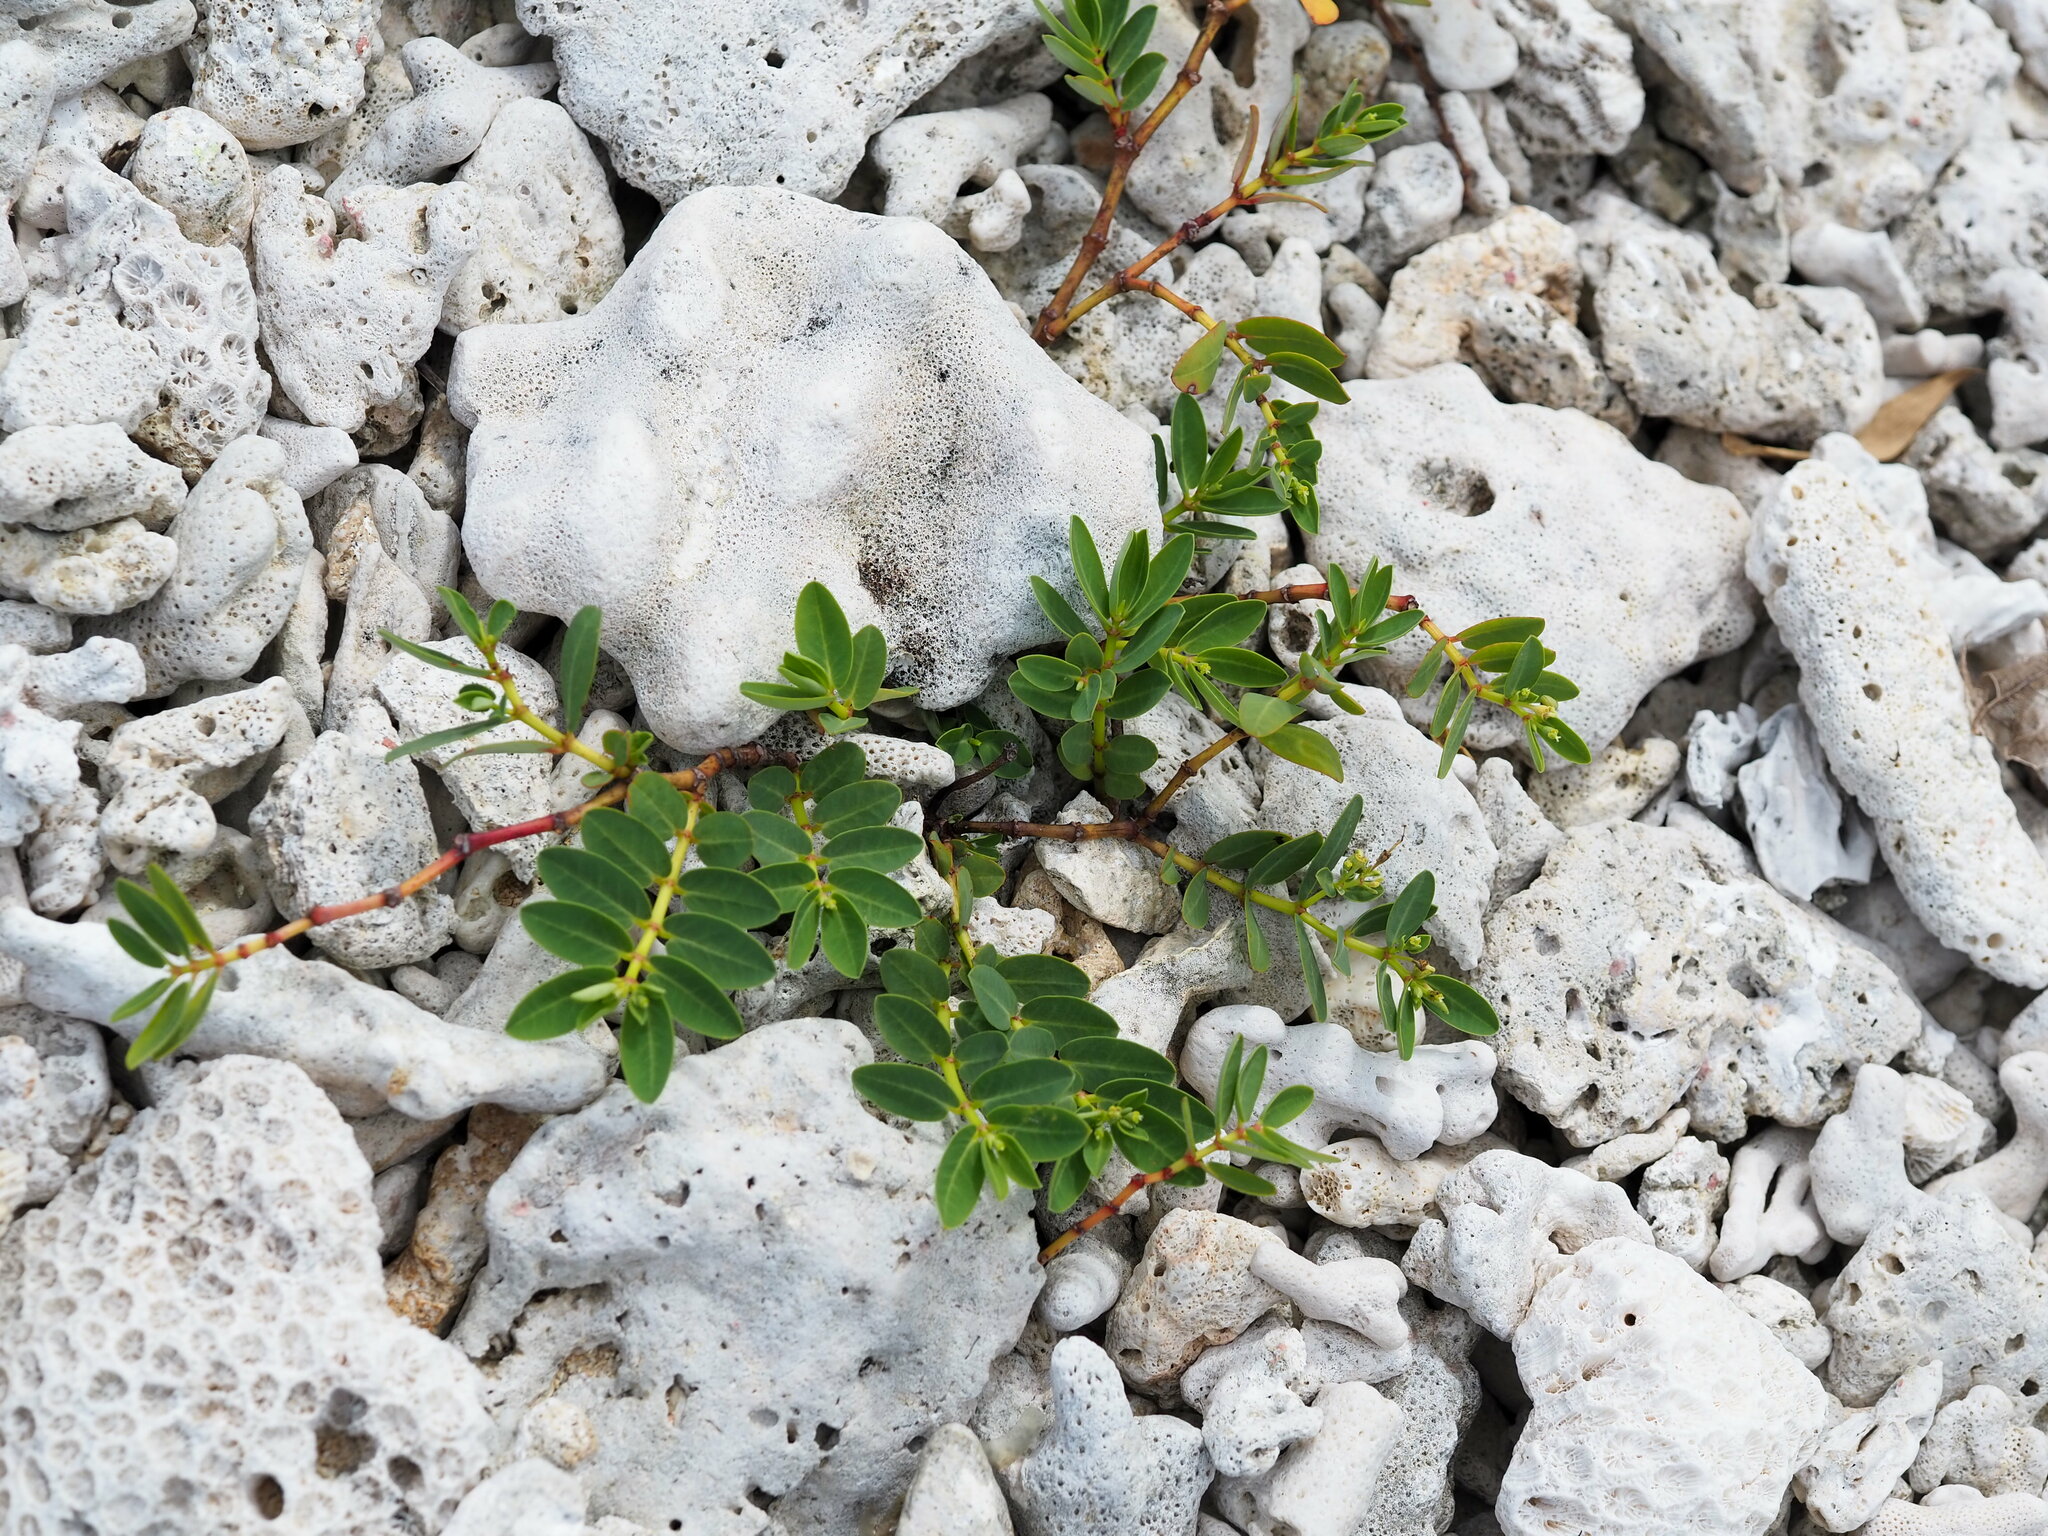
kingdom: Plantae
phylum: Tracheophyta
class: Magnoliopsida
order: Malpighiales
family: Euphorbiaceae
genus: Euphorbia
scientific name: Euphorbia atoto
